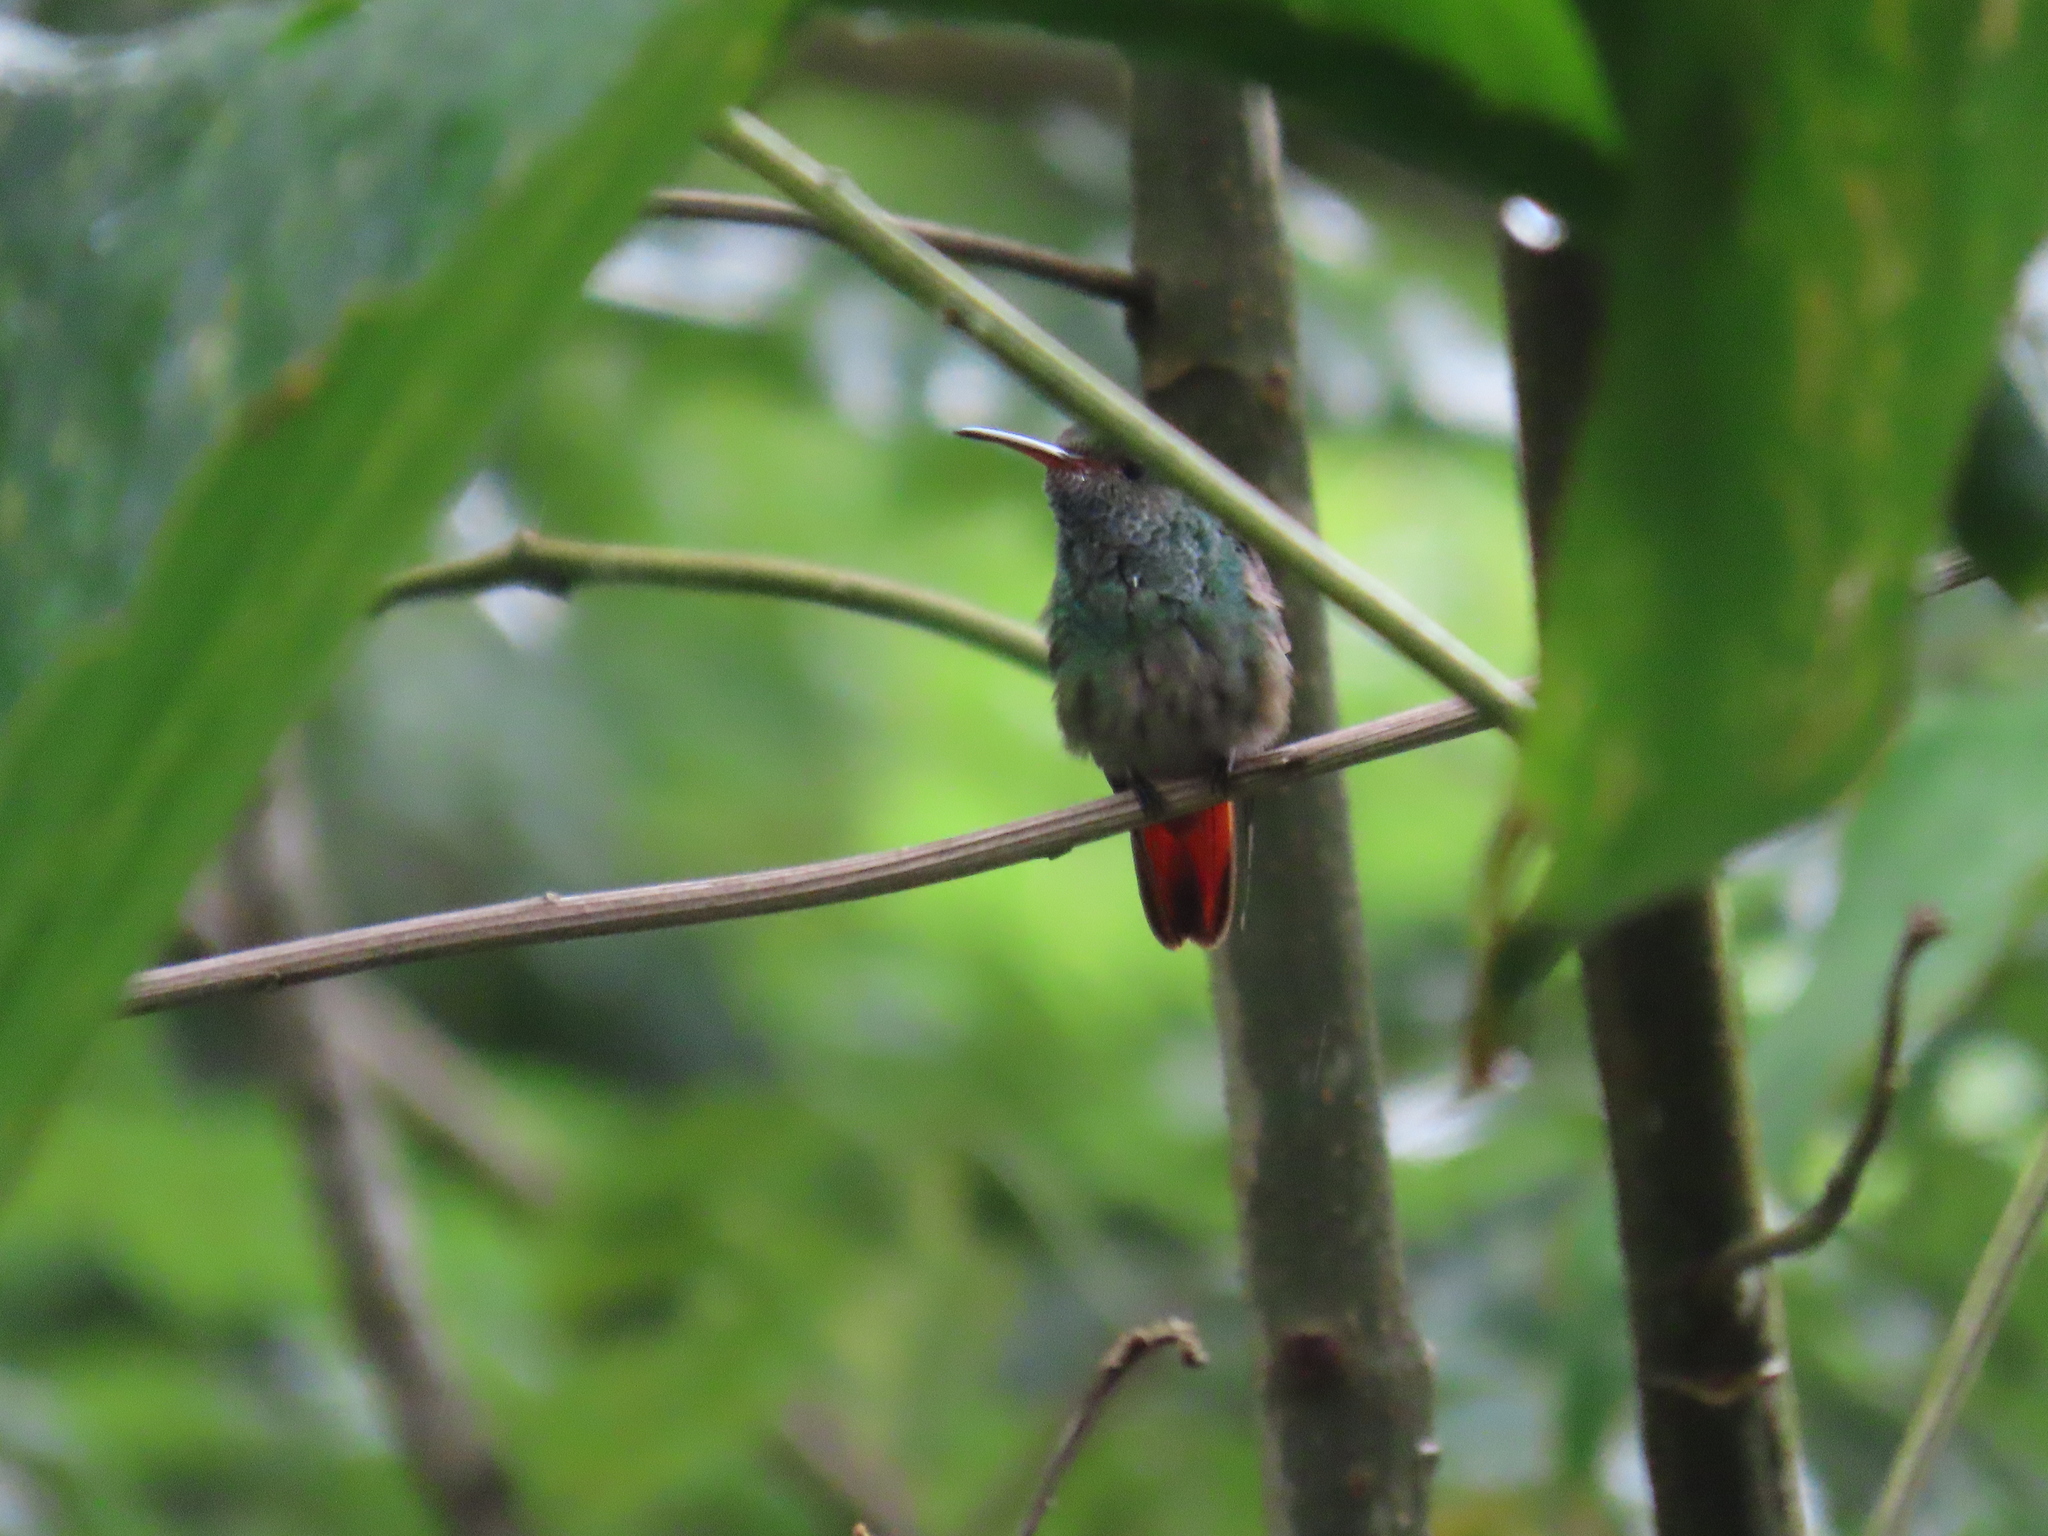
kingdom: Animalia
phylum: Chordata
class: Aves
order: Apodiformes
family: Trochilidae
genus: Amazilia
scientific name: Amazilia tzacatl
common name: Rufous-tailed hummingbird
